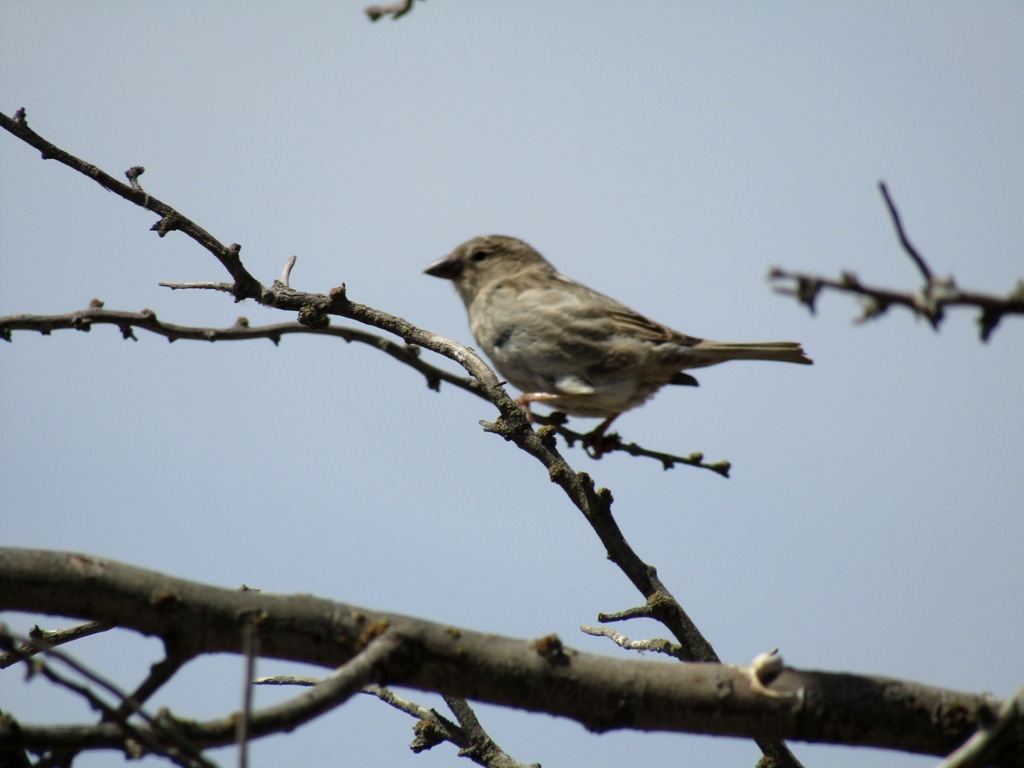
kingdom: Animalia
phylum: Chordata
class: Aves
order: Passeriformes
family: Passeridae
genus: Passer
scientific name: Passer hispaniolensis
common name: Spanish sparrow
